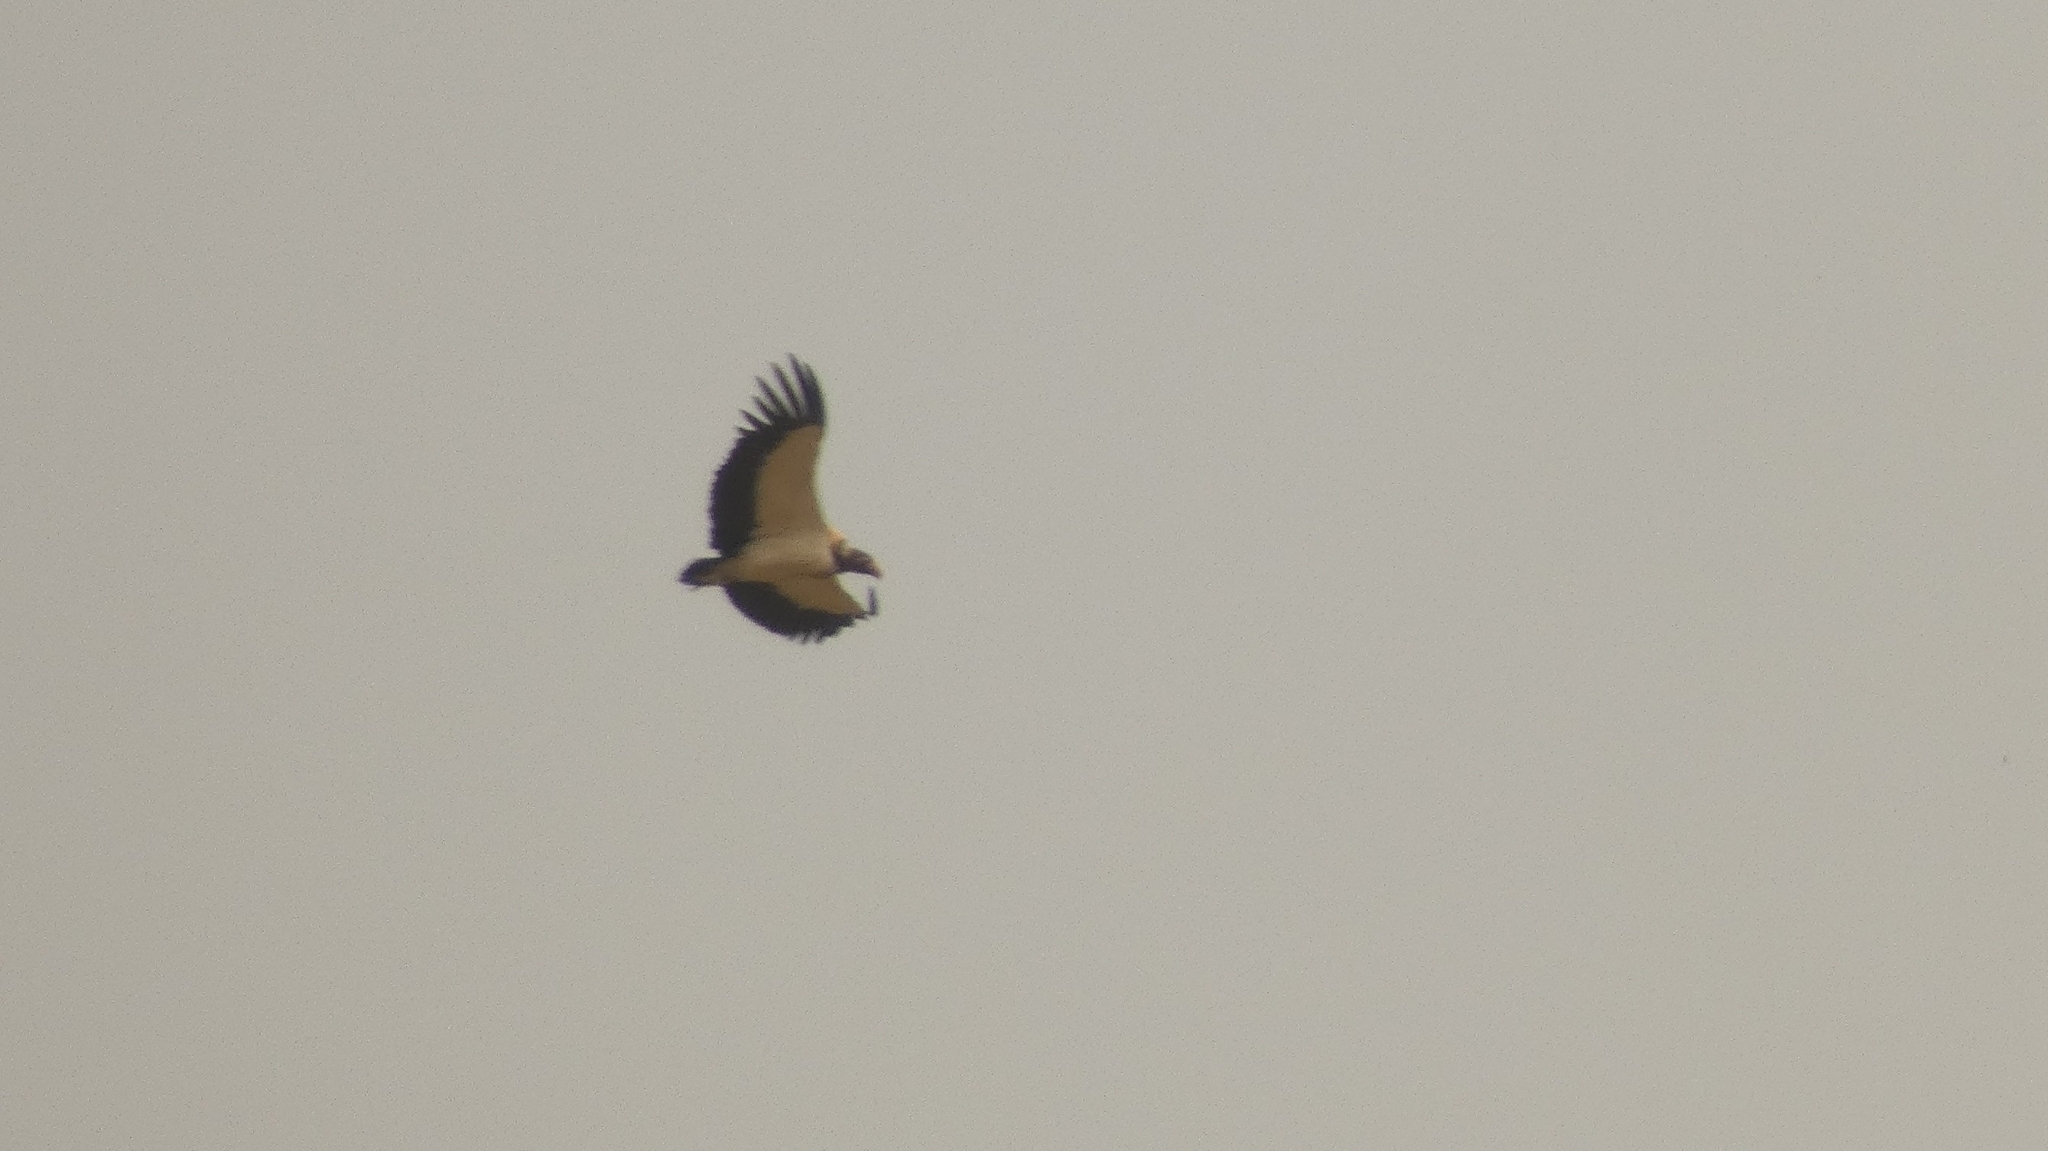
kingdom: Animalia
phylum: Chordata
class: Aves
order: Accipitriformes
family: Cathartidae
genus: Sarcoramphus
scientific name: Sarcoramphus papa
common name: King vulture
